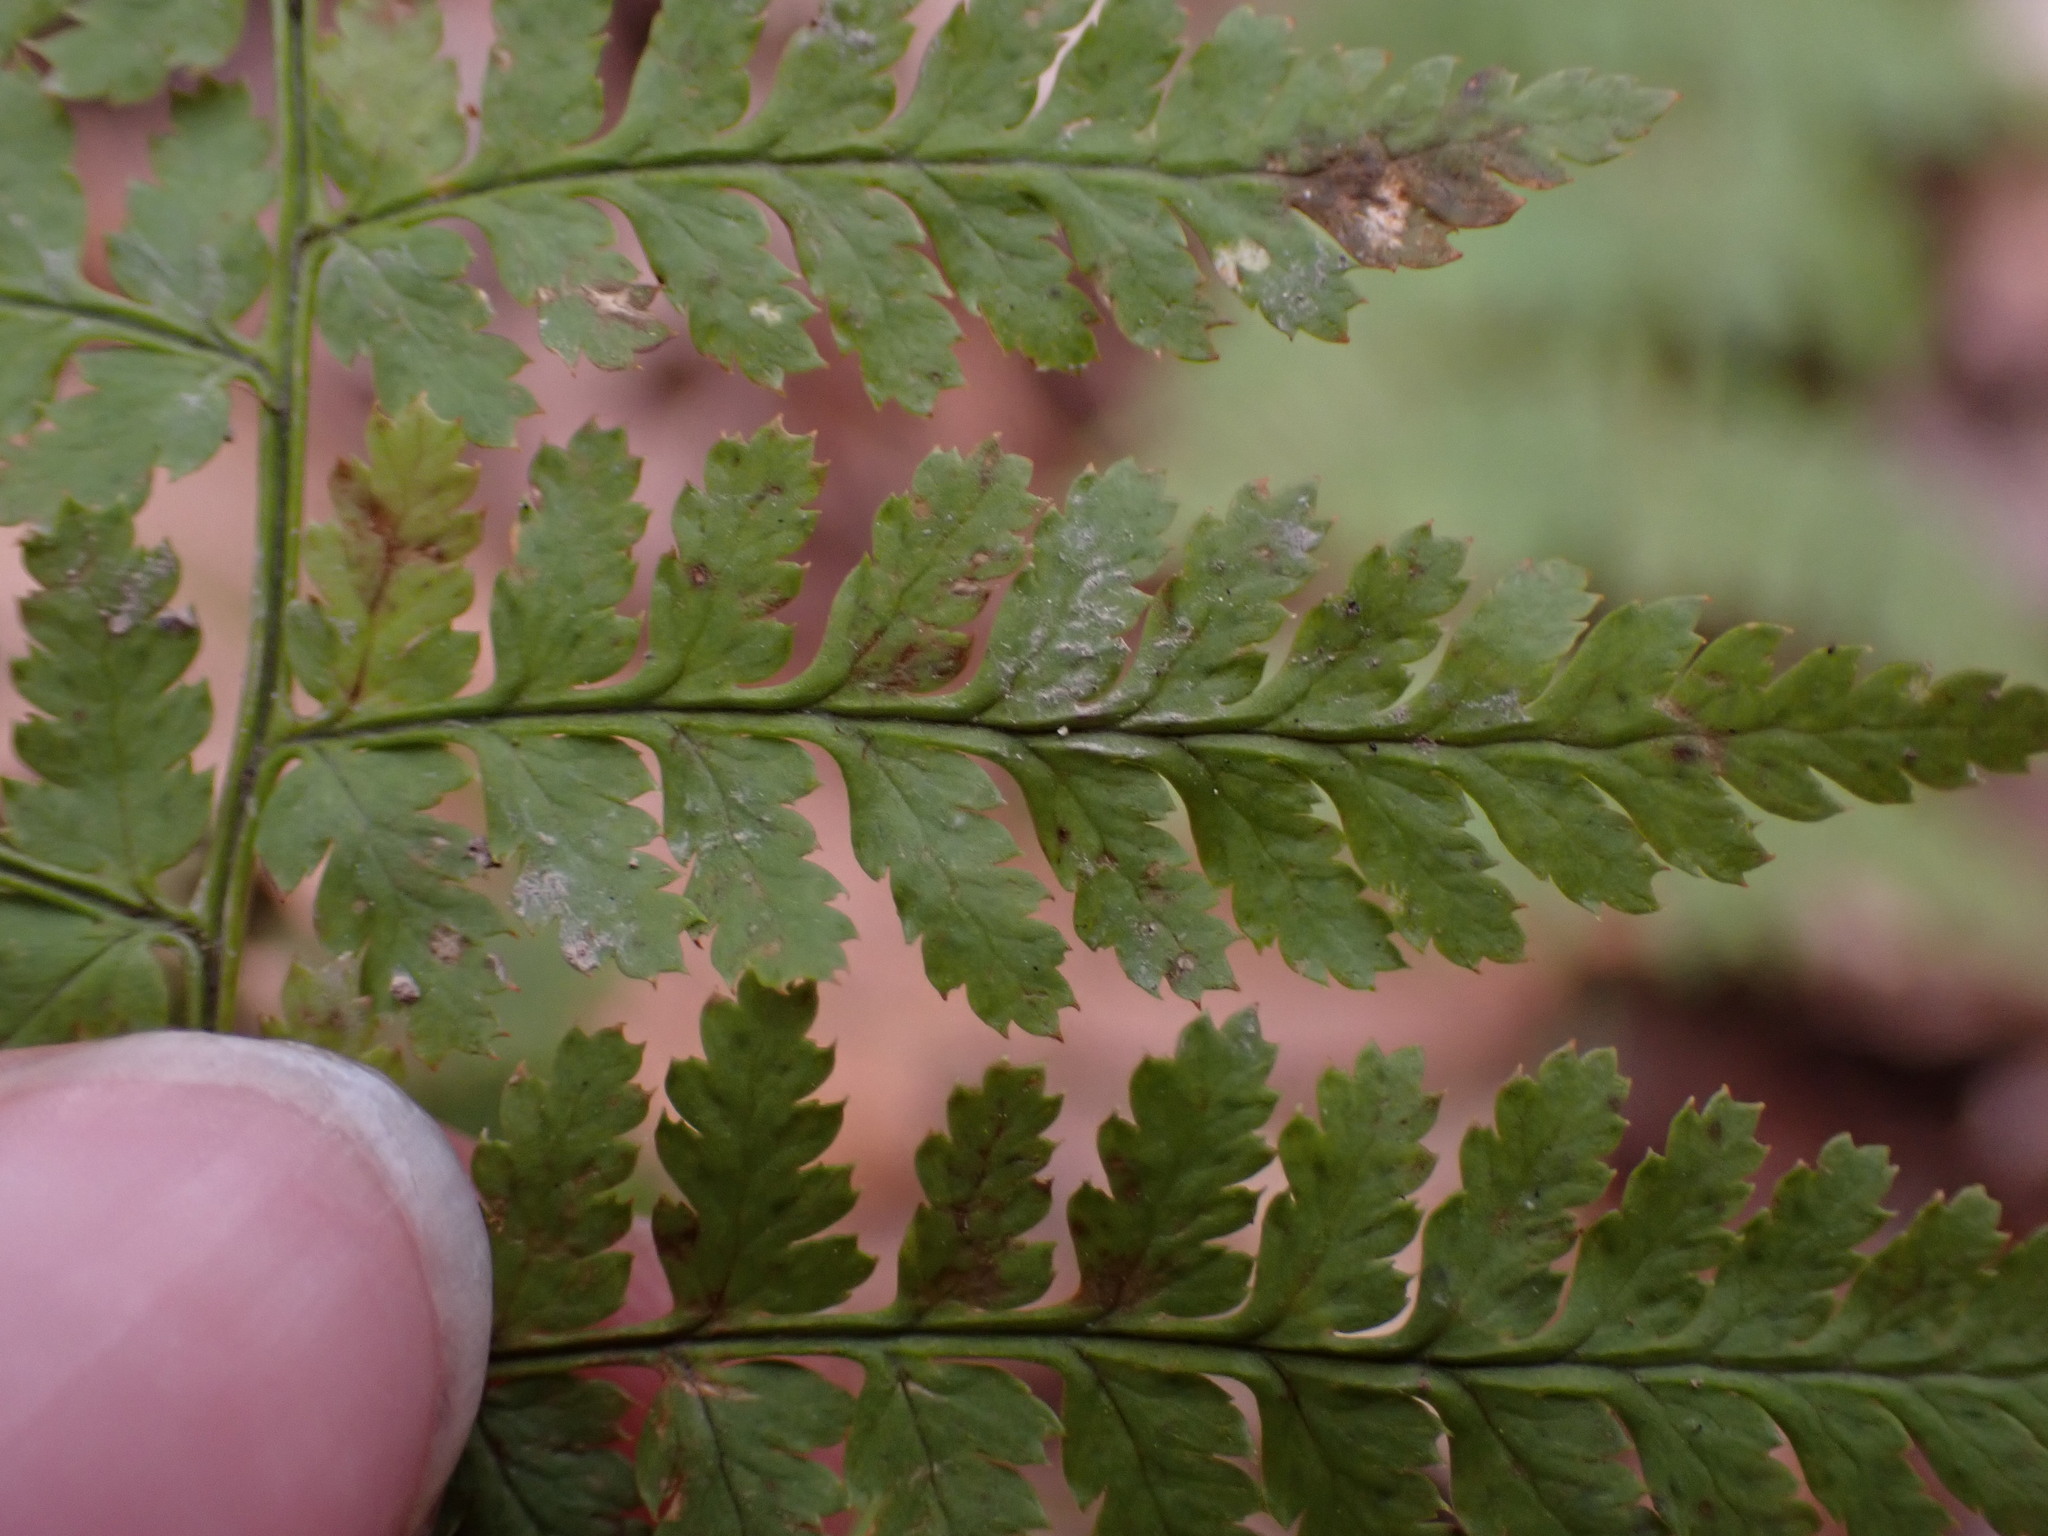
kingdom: Plantae
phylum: Tracheophyta
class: Polypodiopsida
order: Polypodiales
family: Dryopteridaceae
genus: Dryopteris
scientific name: Dryopteris intermedia
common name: Evergreen wood fern
